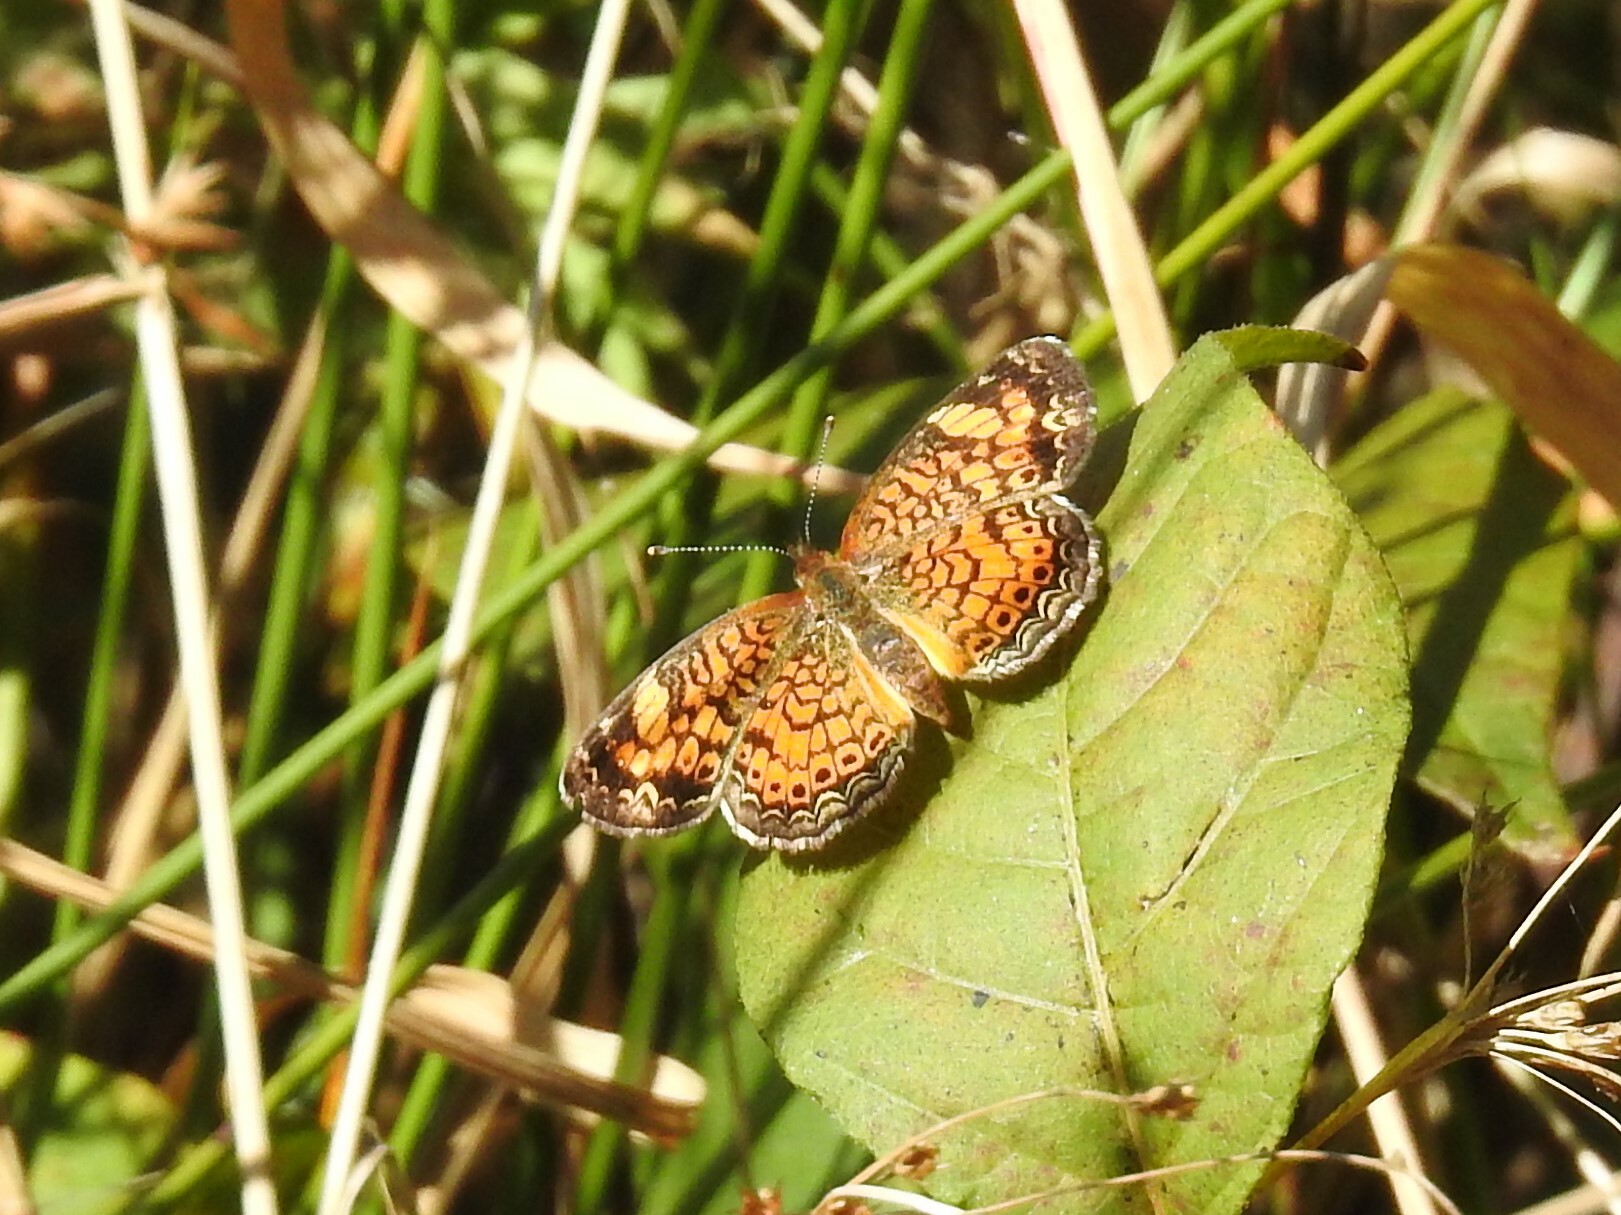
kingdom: Animalia
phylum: Arthropoda
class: Insecta
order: Lepidoptera
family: Nymphalidae
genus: Phyciodes
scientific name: Phyciodes tharos
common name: Pearl crescent
